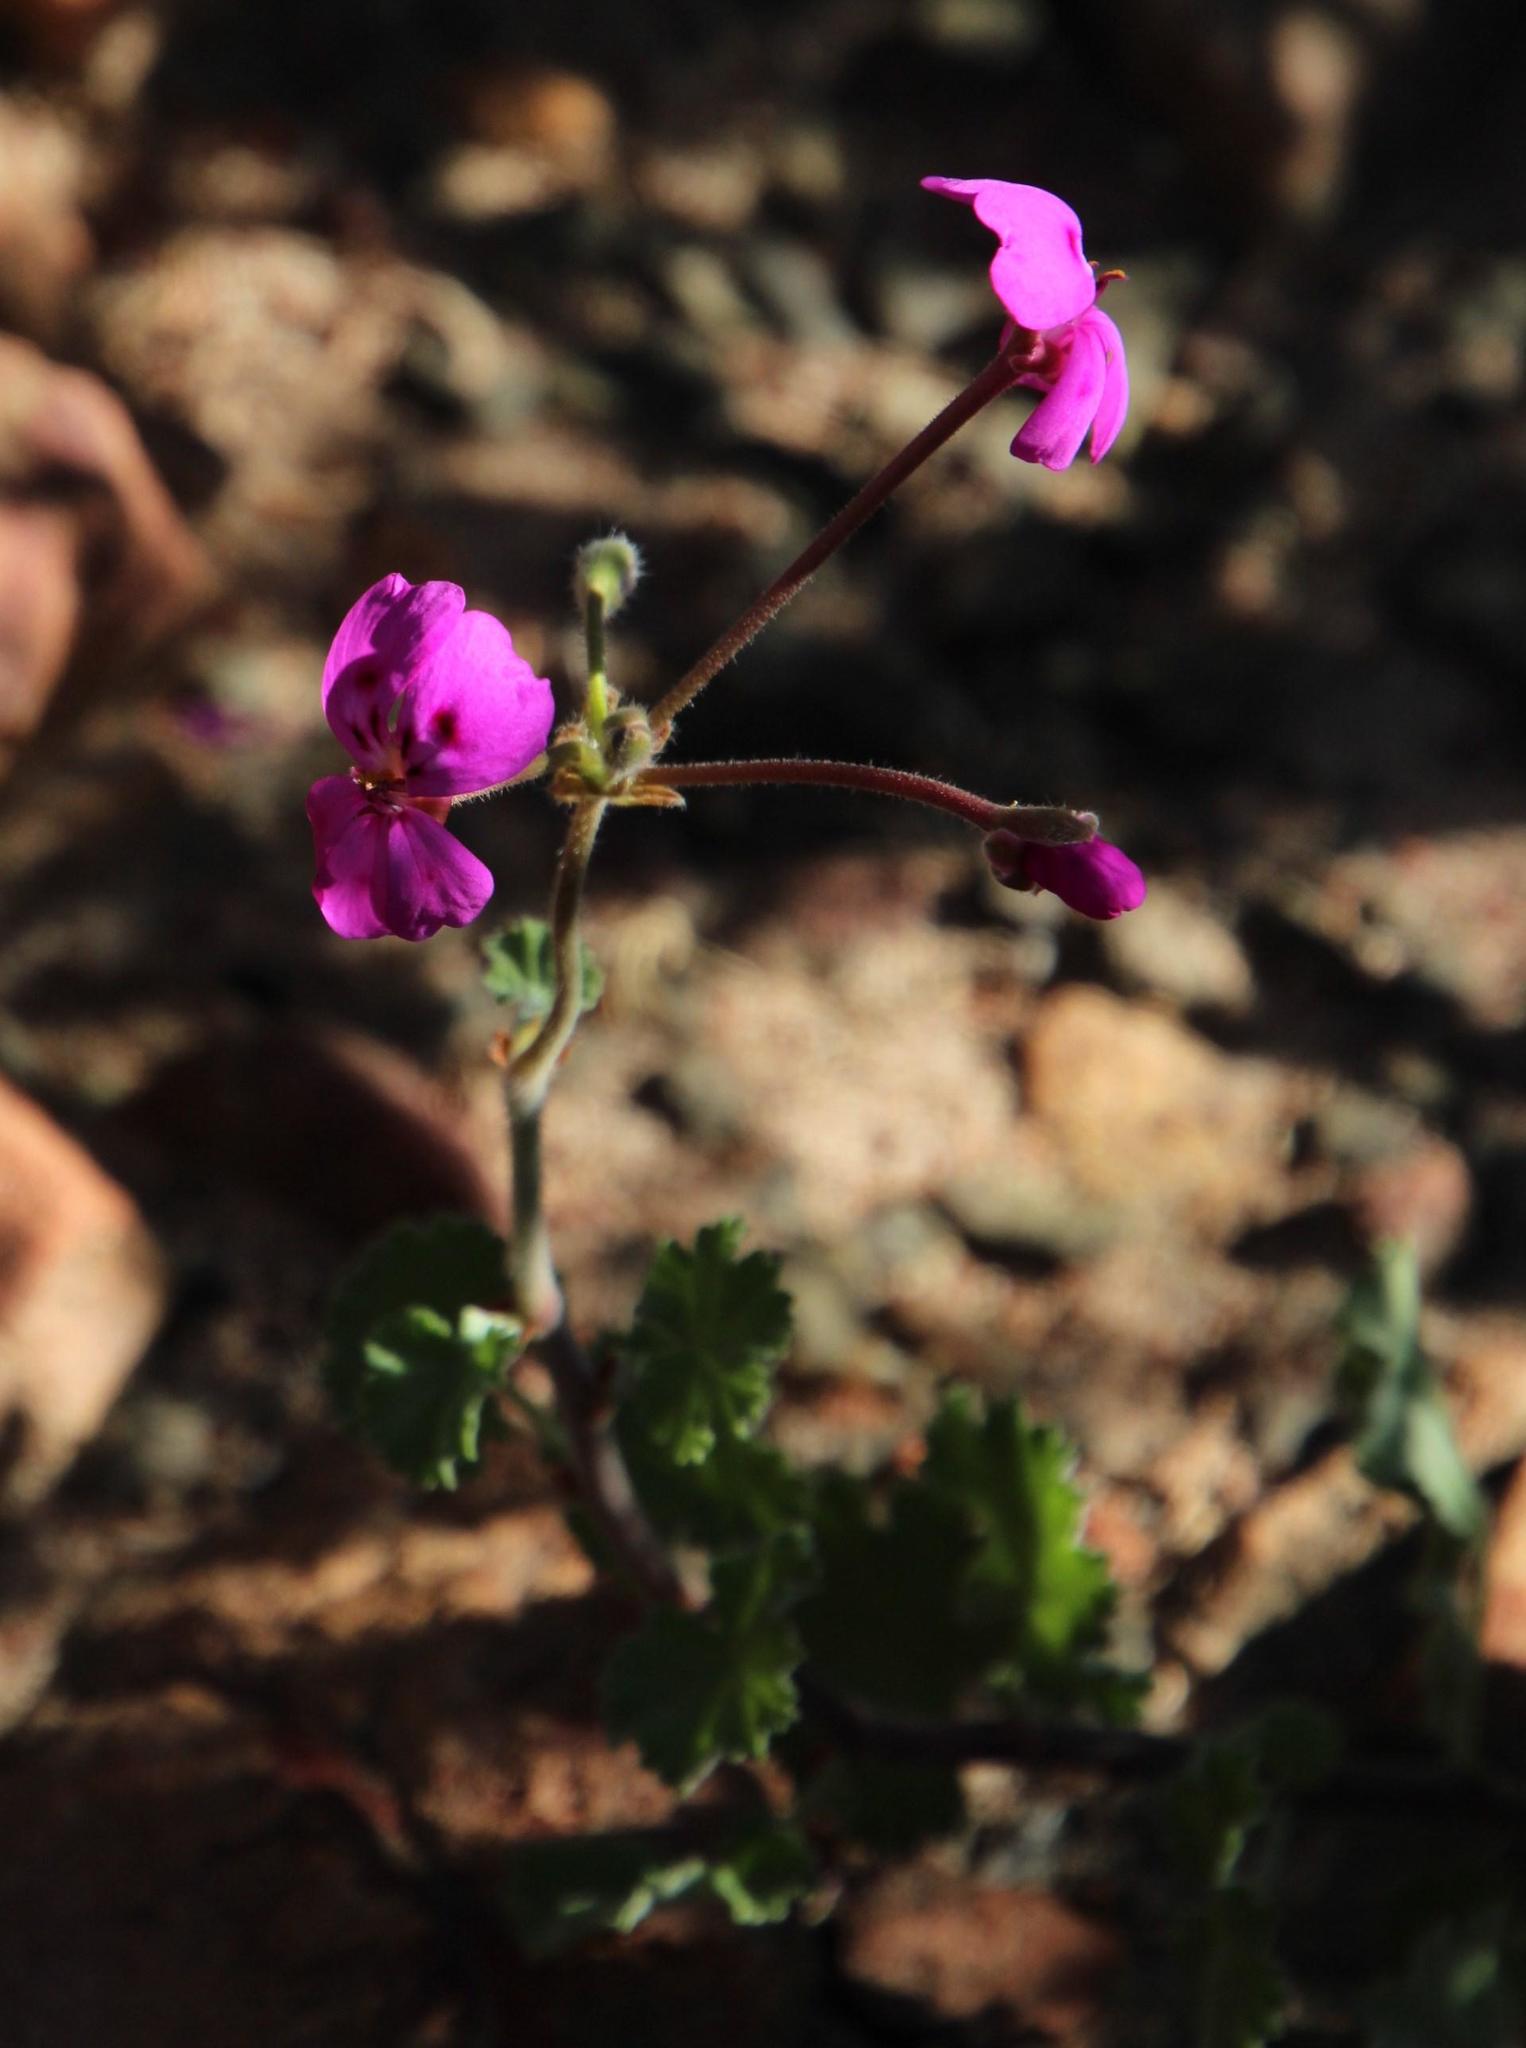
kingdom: Plantae
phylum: Tracheophyta
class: Magnoliopsida
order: Geraniales
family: Geraniaceae
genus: Pelargonium
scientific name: Pelargonium magenteum
